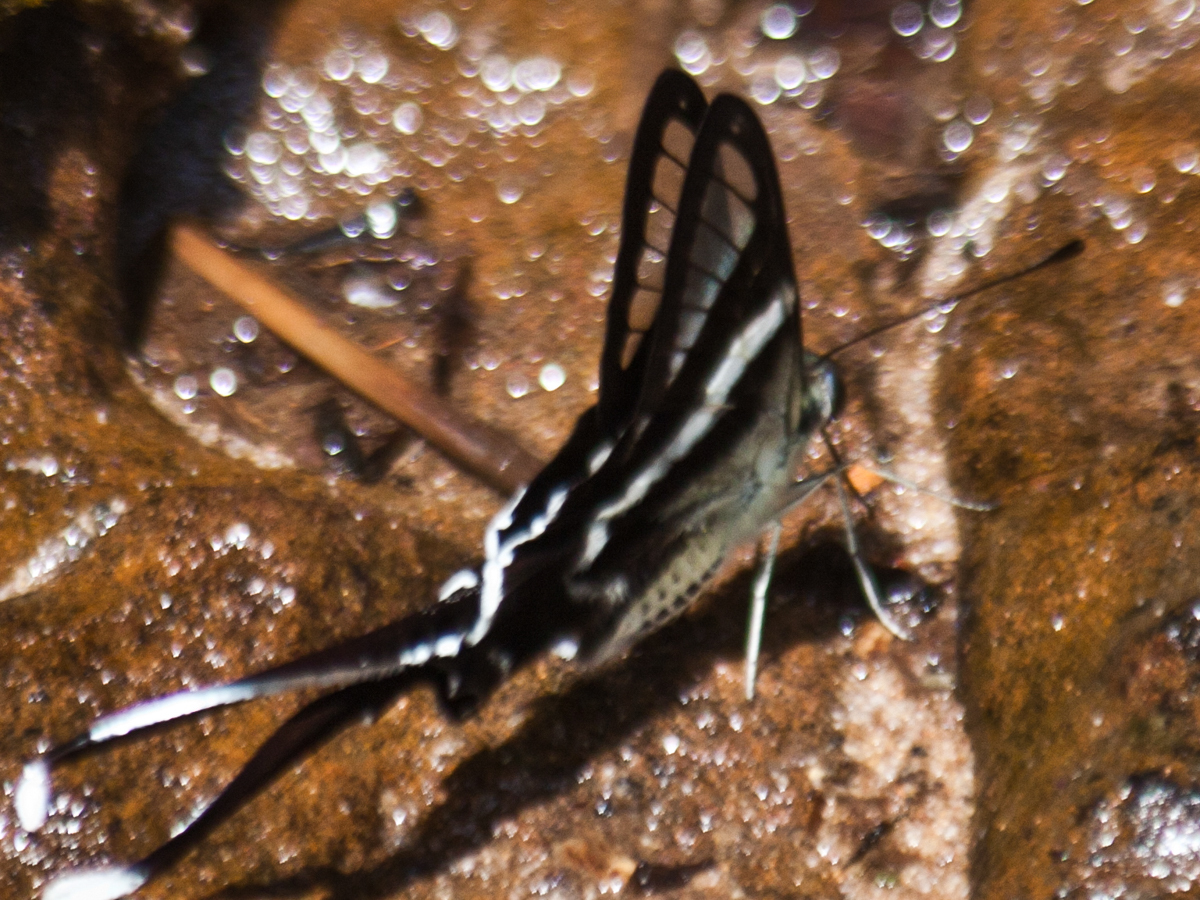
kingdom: Animalia
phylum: Arthropoda
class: Insecta
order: Lepidoptera
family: Papilionidae
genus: Lamproptera
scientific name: Lamproptera curius
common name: White dragontail
